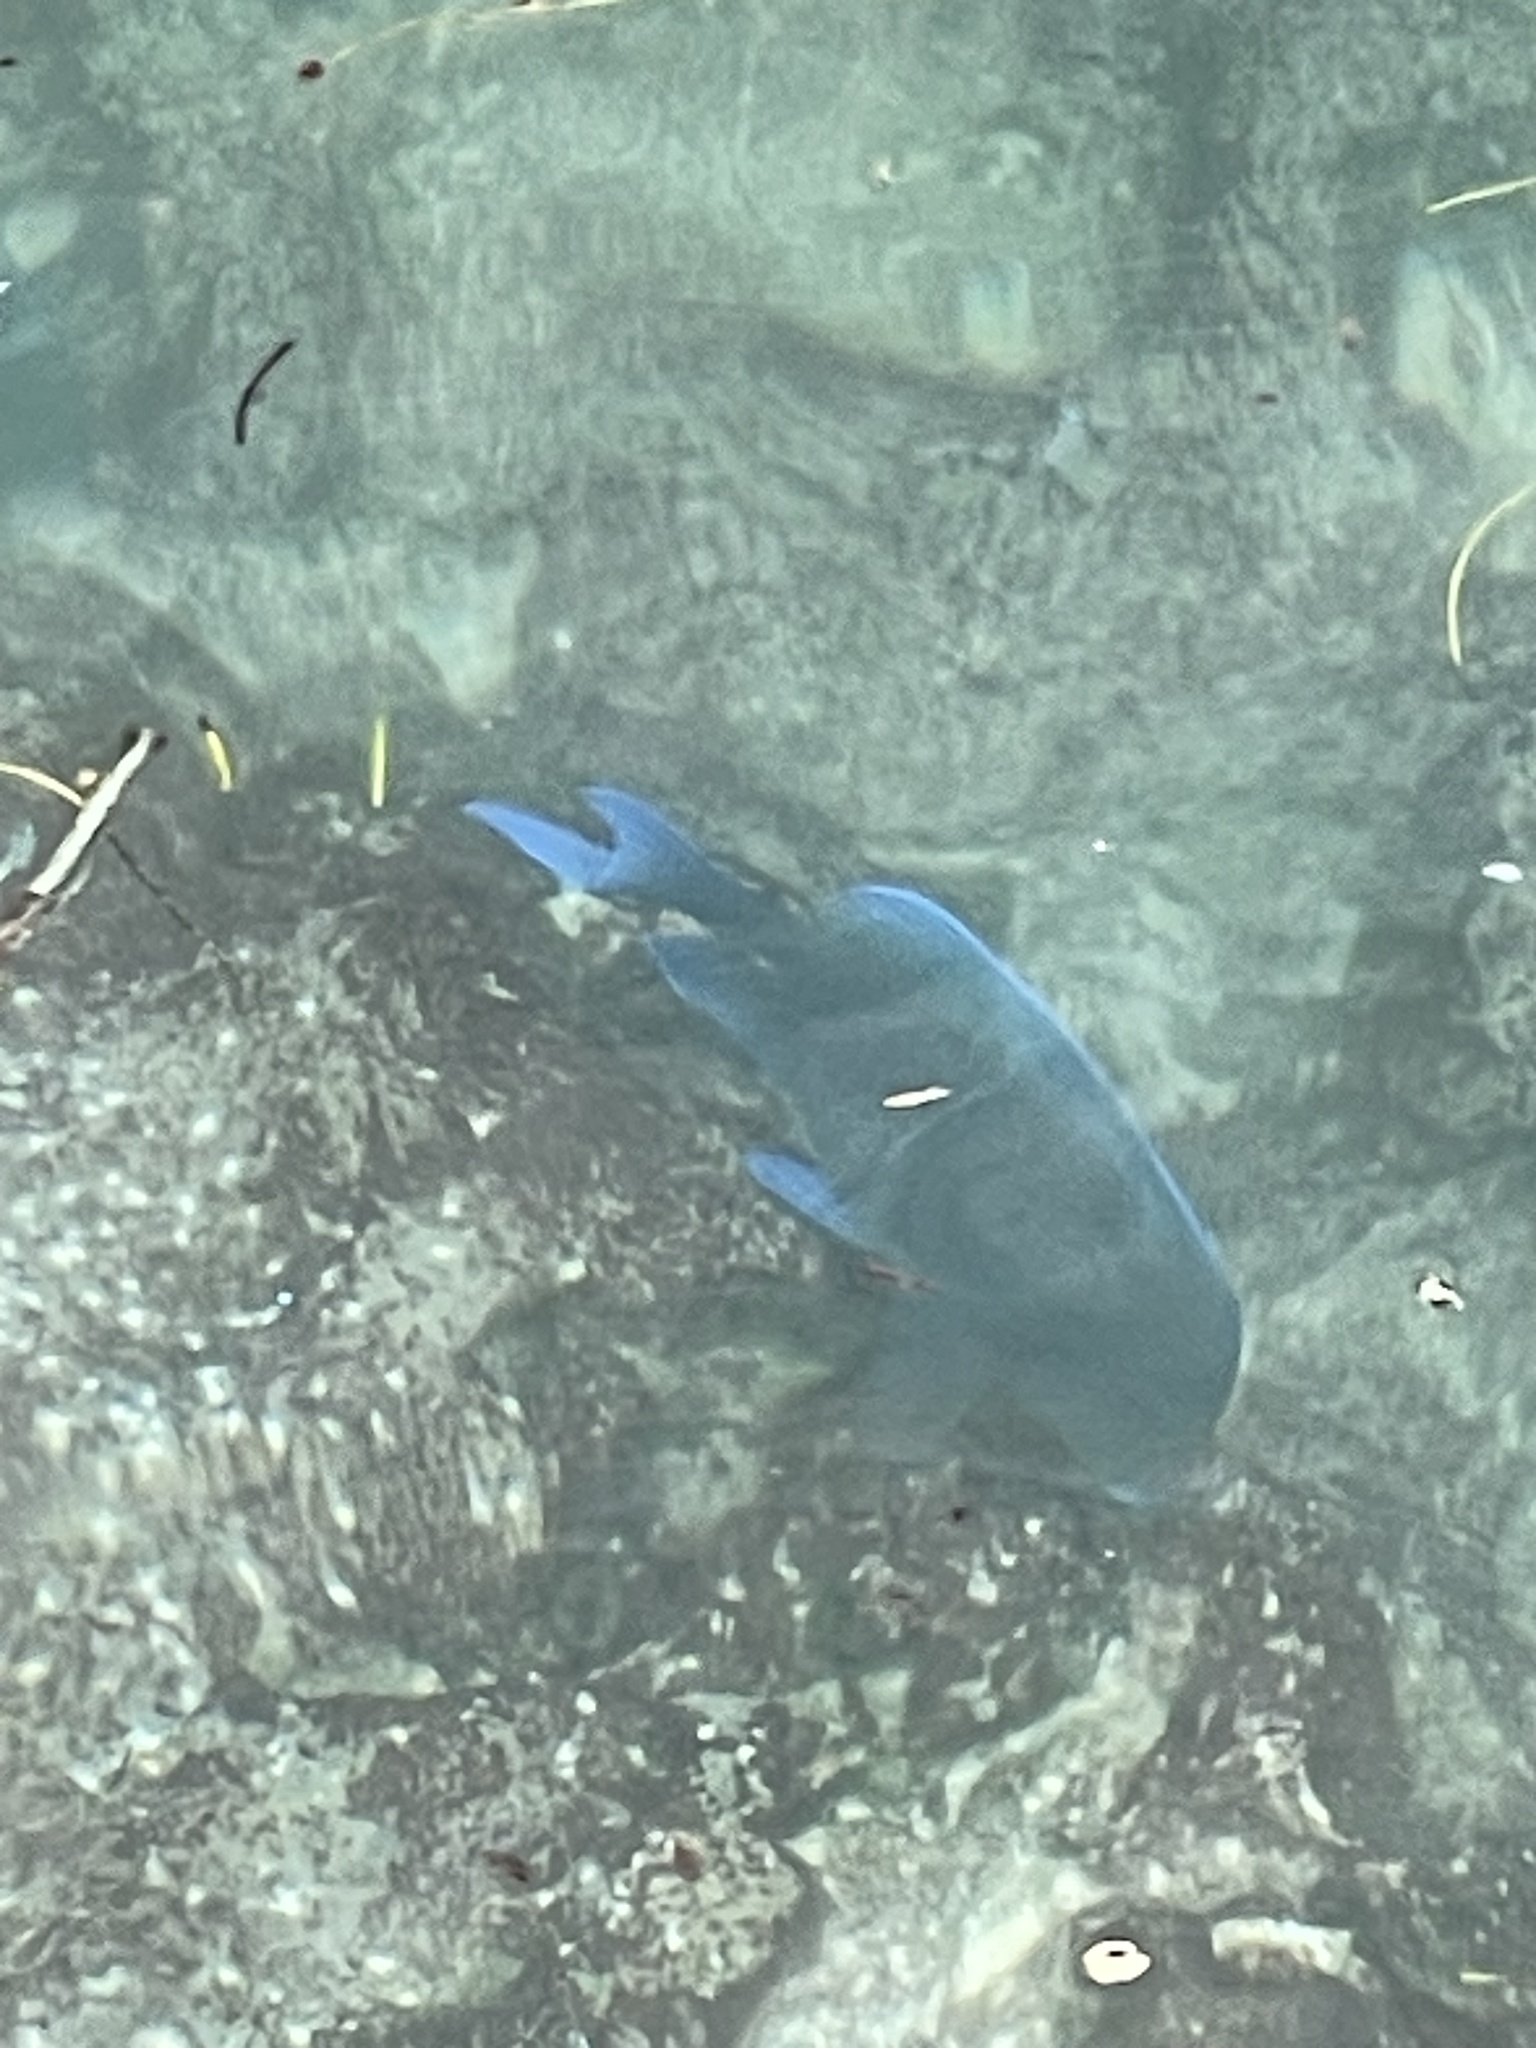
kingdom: Animalia
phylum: Chordata
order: Perciformes
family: Acanthuridae
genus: Acanthurus
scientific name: Acanthurus coeruleus
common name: Blue tang
